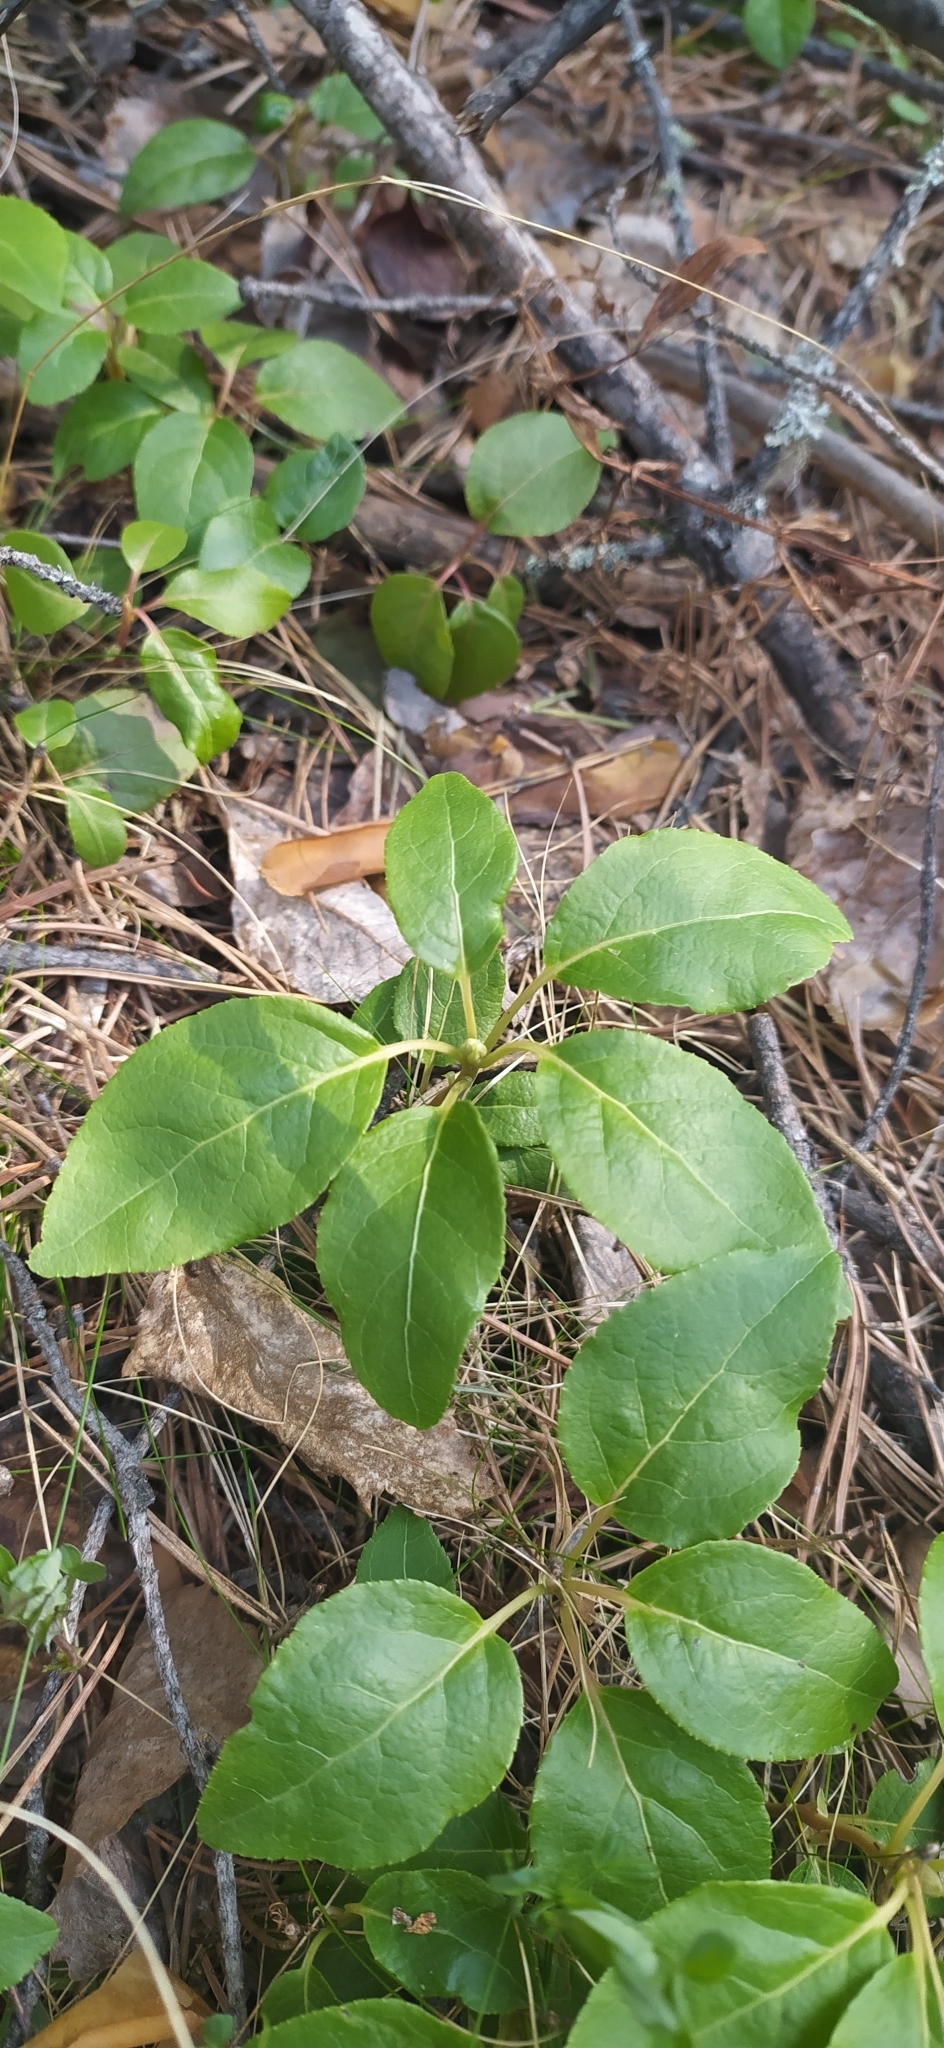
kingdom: Plantae
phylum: Tracheophyta
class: Magnoliopsida
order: Ericales
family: Ericaceae
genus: Orthilia
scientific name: Orthilia secunda
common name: One-sided orthilia
